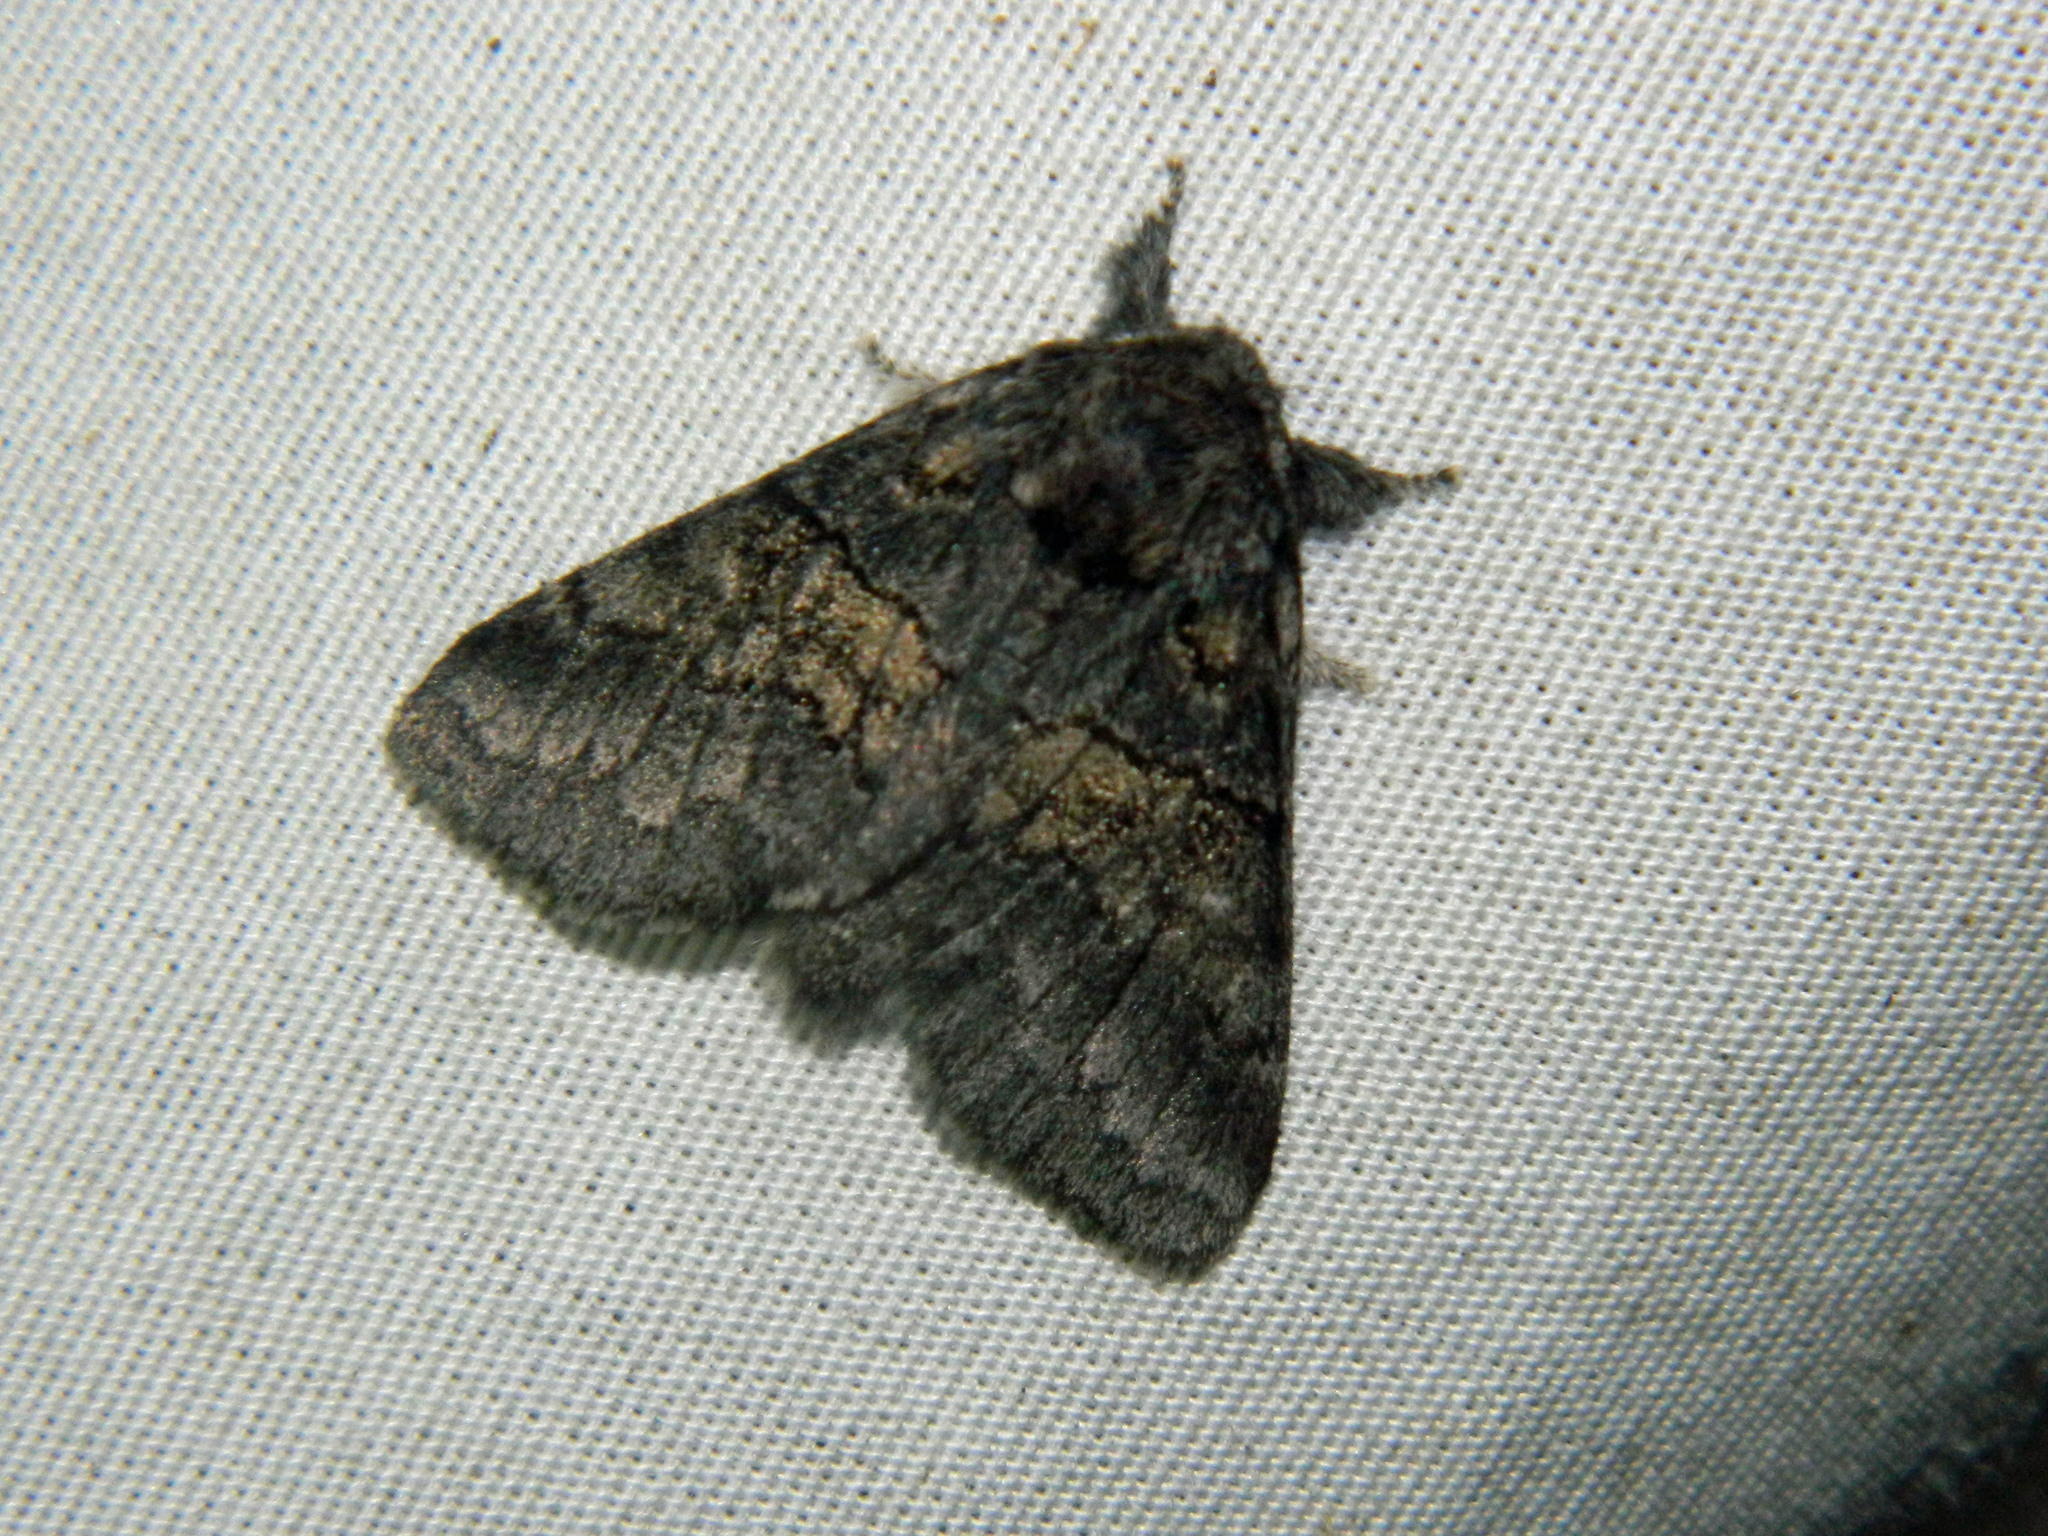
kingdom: Animalia
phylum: Arthropoda
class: Insecta
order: Lepidoptera
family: Notodontidae
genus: Gluphisia
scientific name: Gluphisia septentrionis
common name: Common gluphisia
